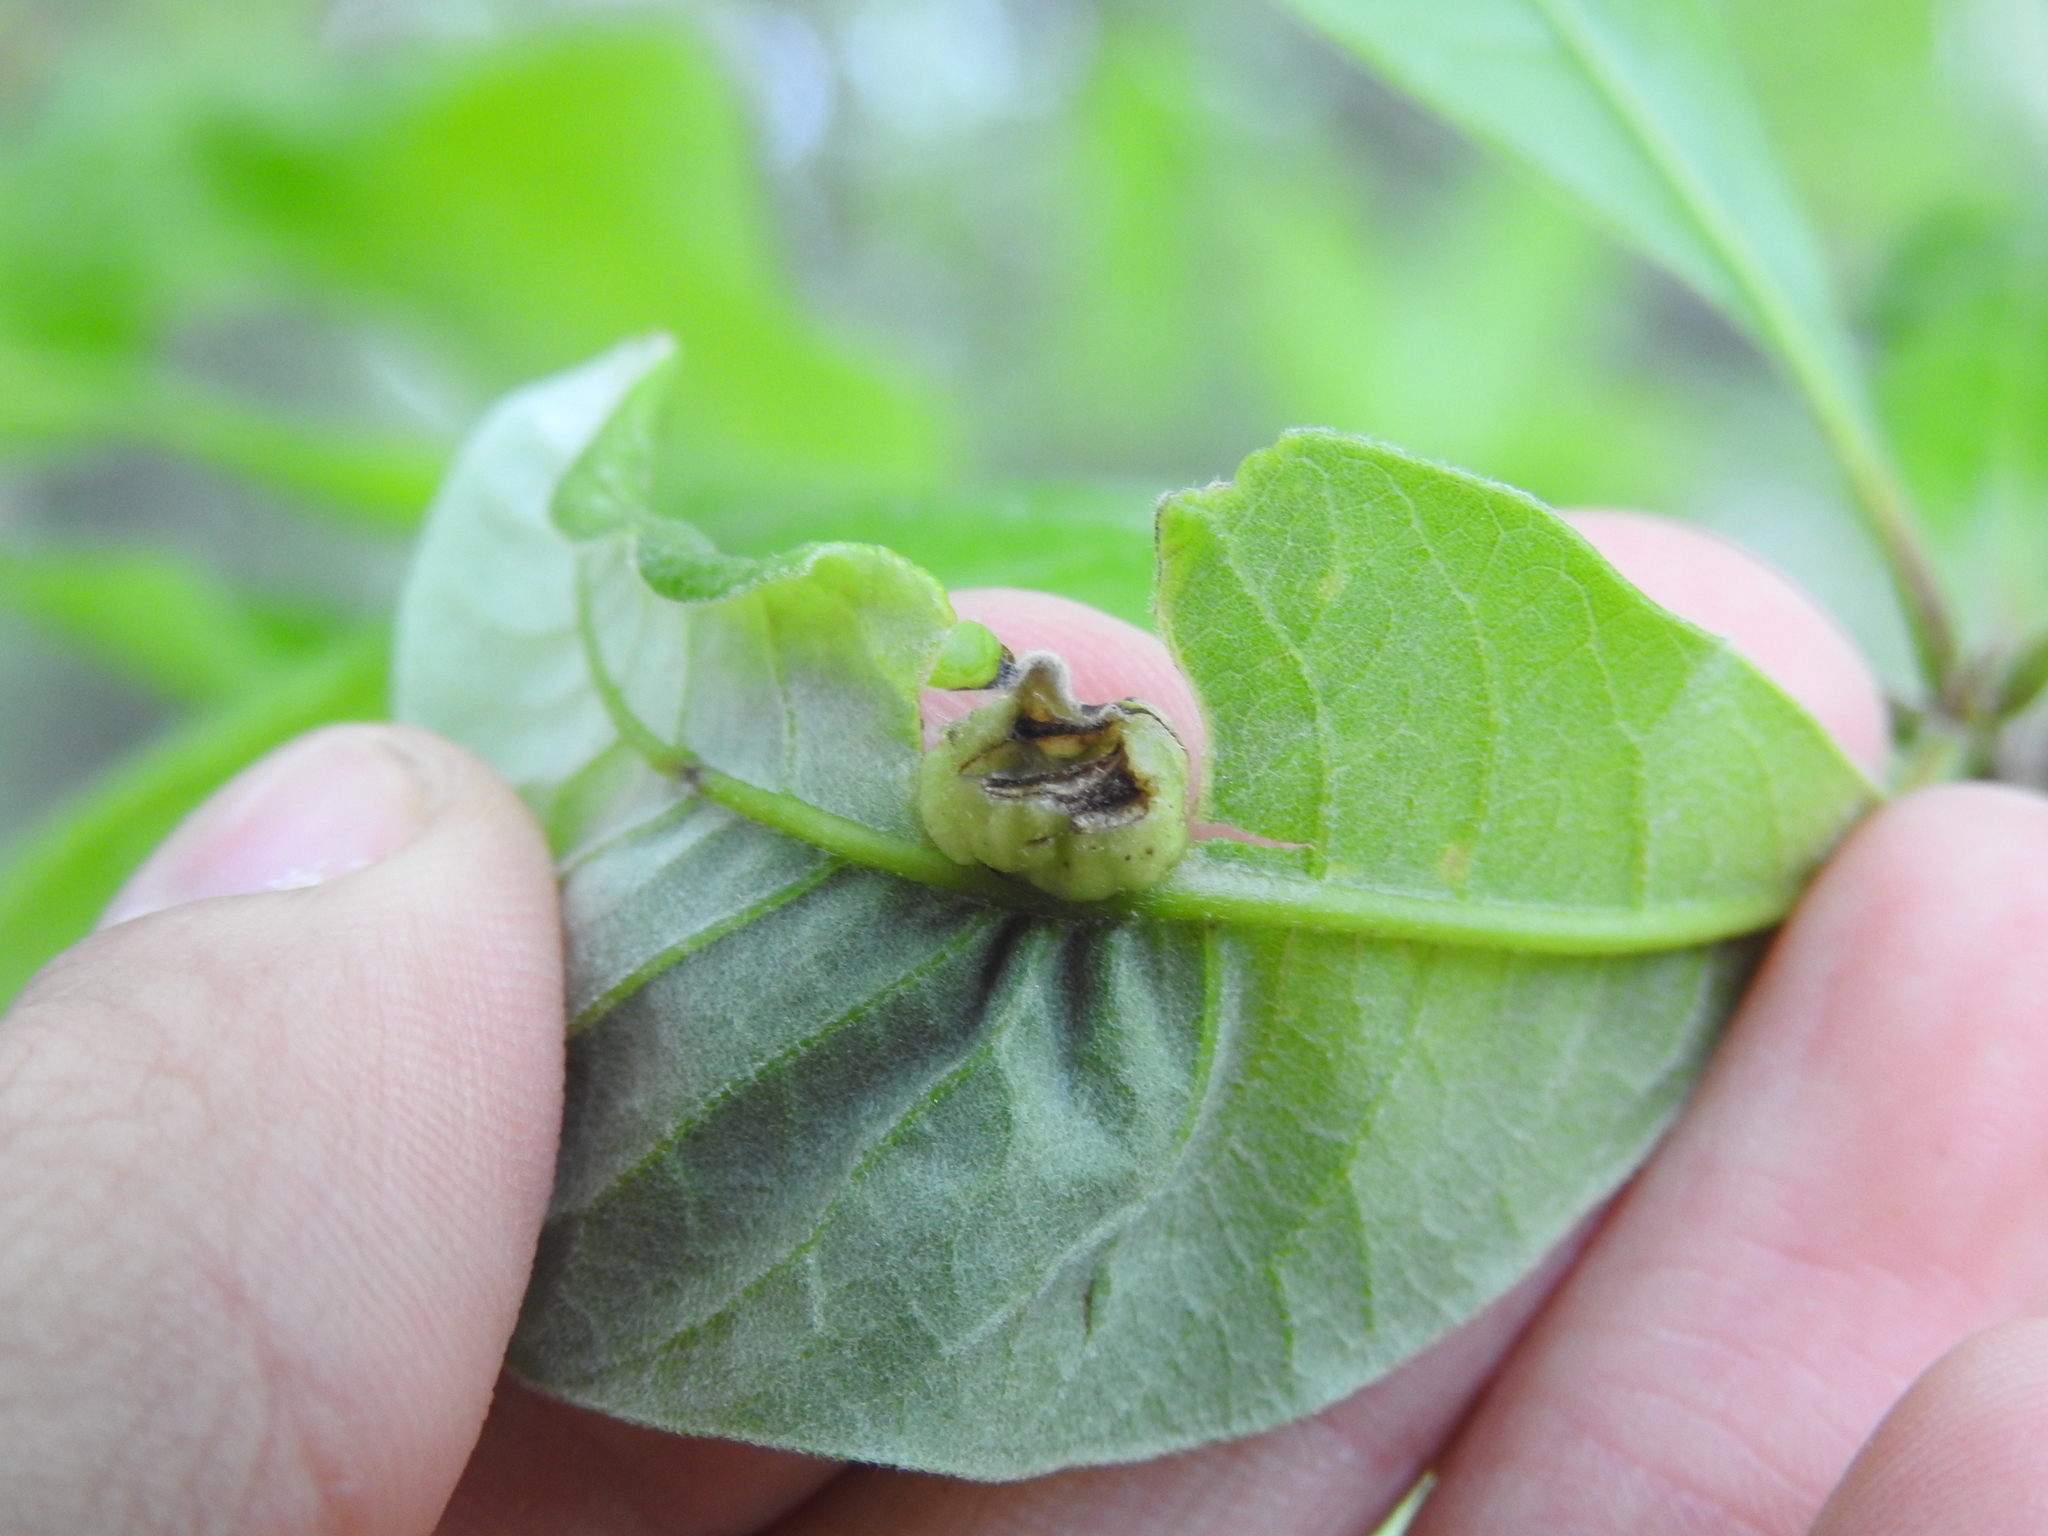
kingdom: Animalia
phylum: Arthropoda
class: Insecta
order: Hymenoptera
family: Cynipidae
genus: Callirhytis
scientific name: Callirhytis
